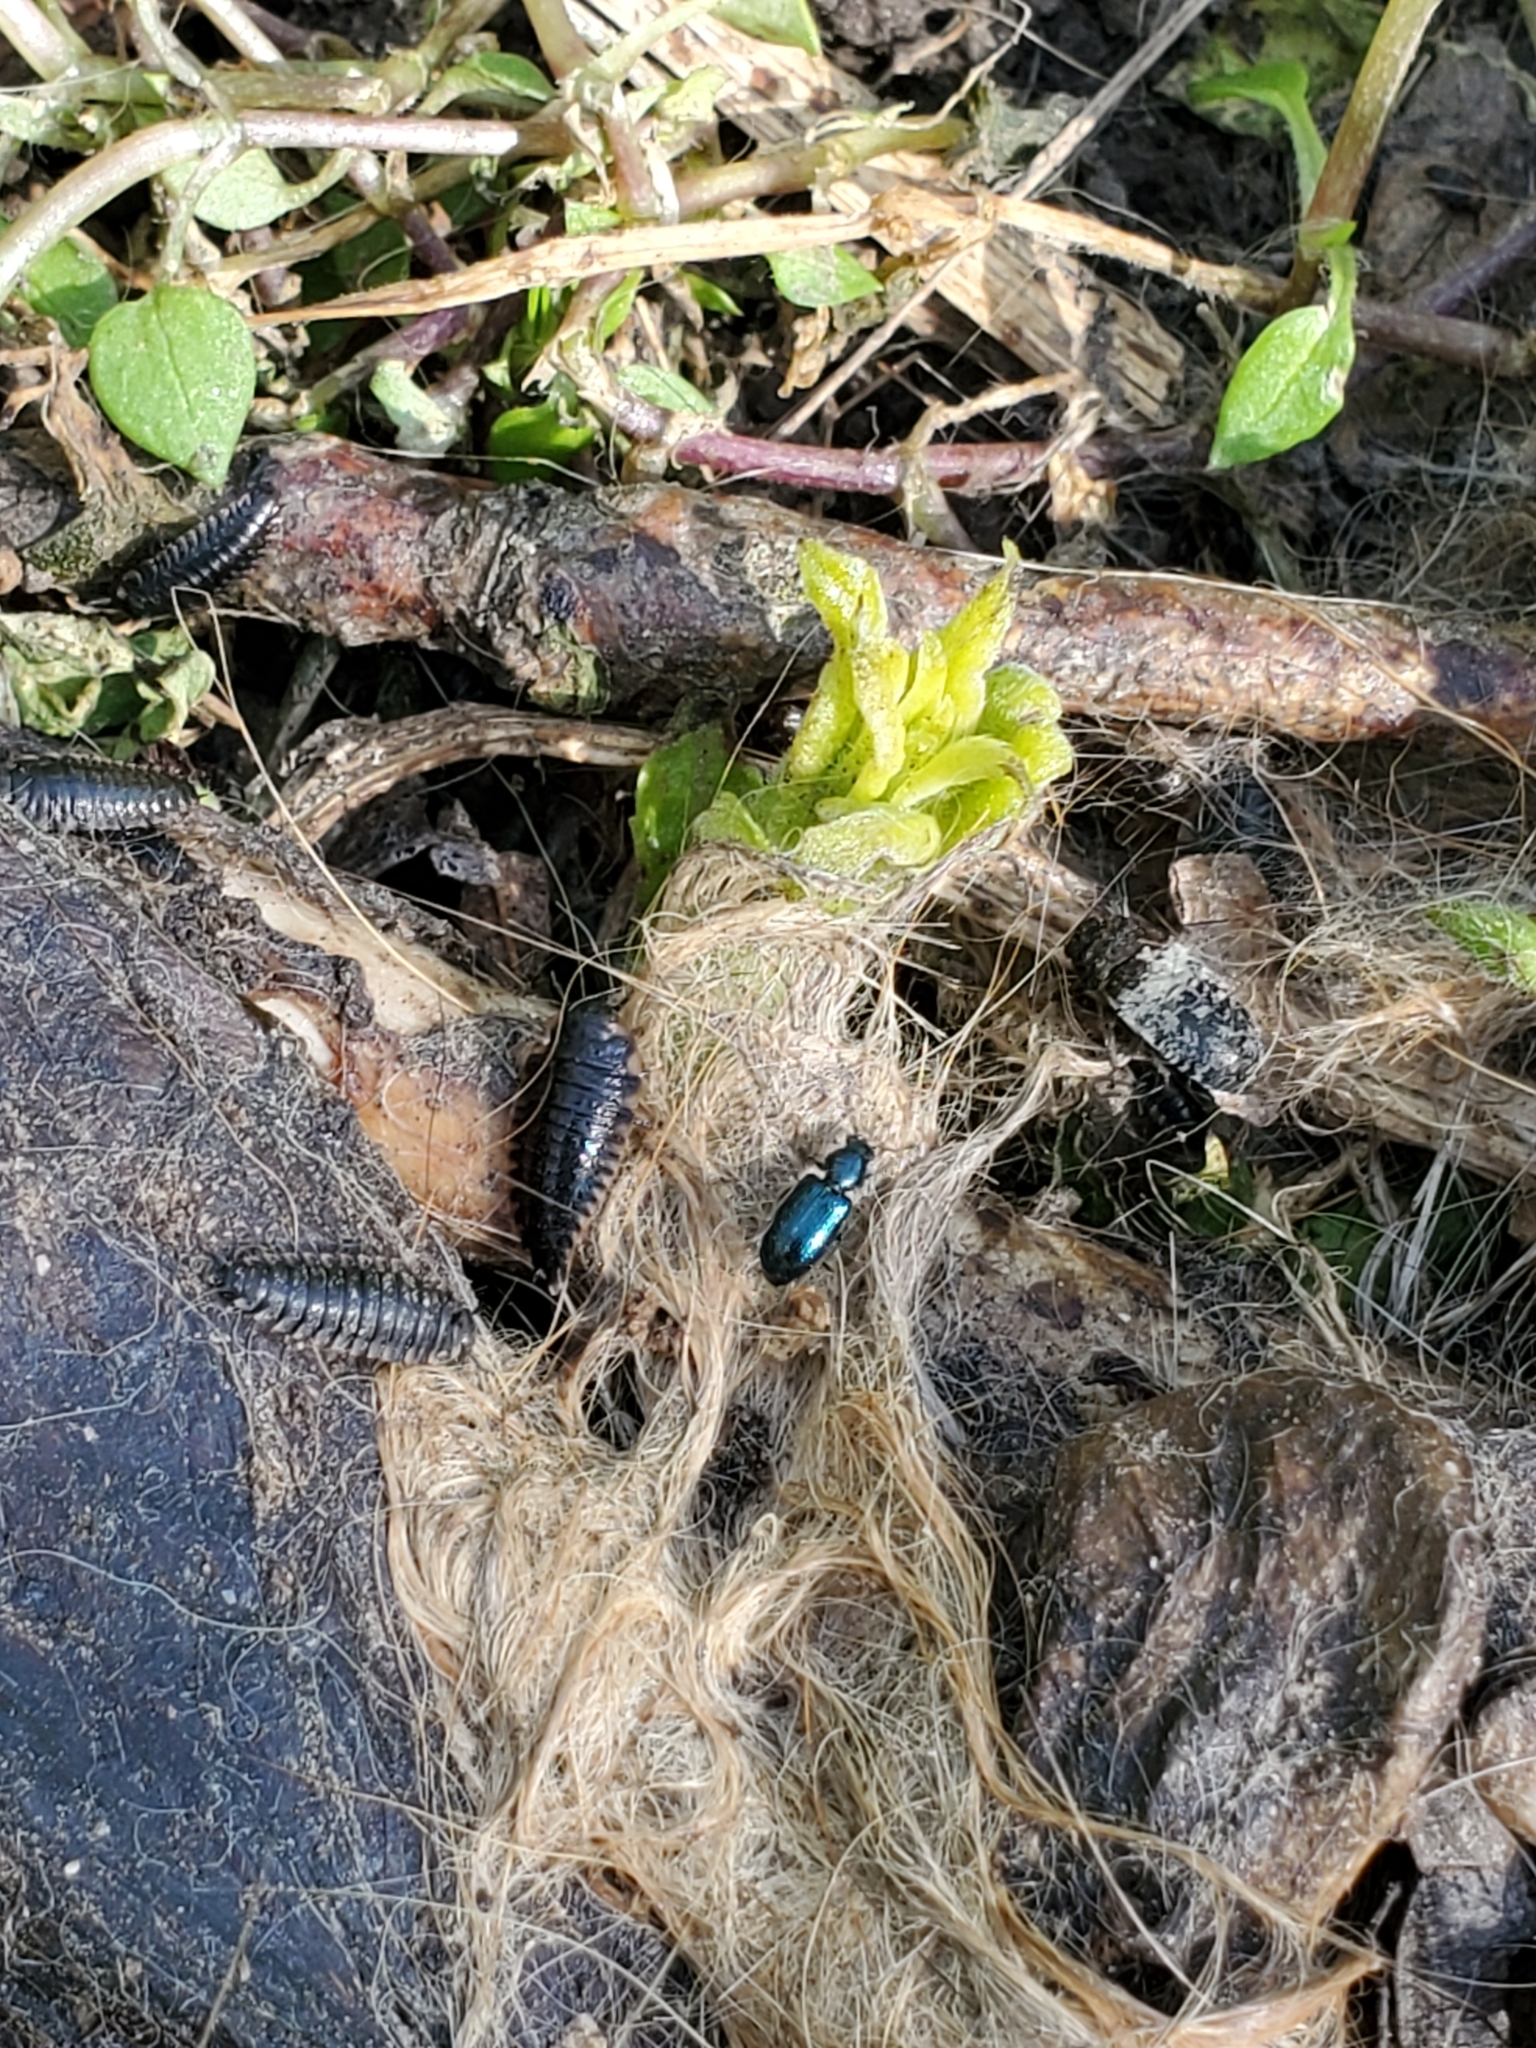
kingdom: Animalia
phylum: Arthropoda
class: Insecta
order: Coleoptera
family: Cleridae
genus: Necrobia
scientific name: Necrobia violacea
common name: Violet checkered beetle
